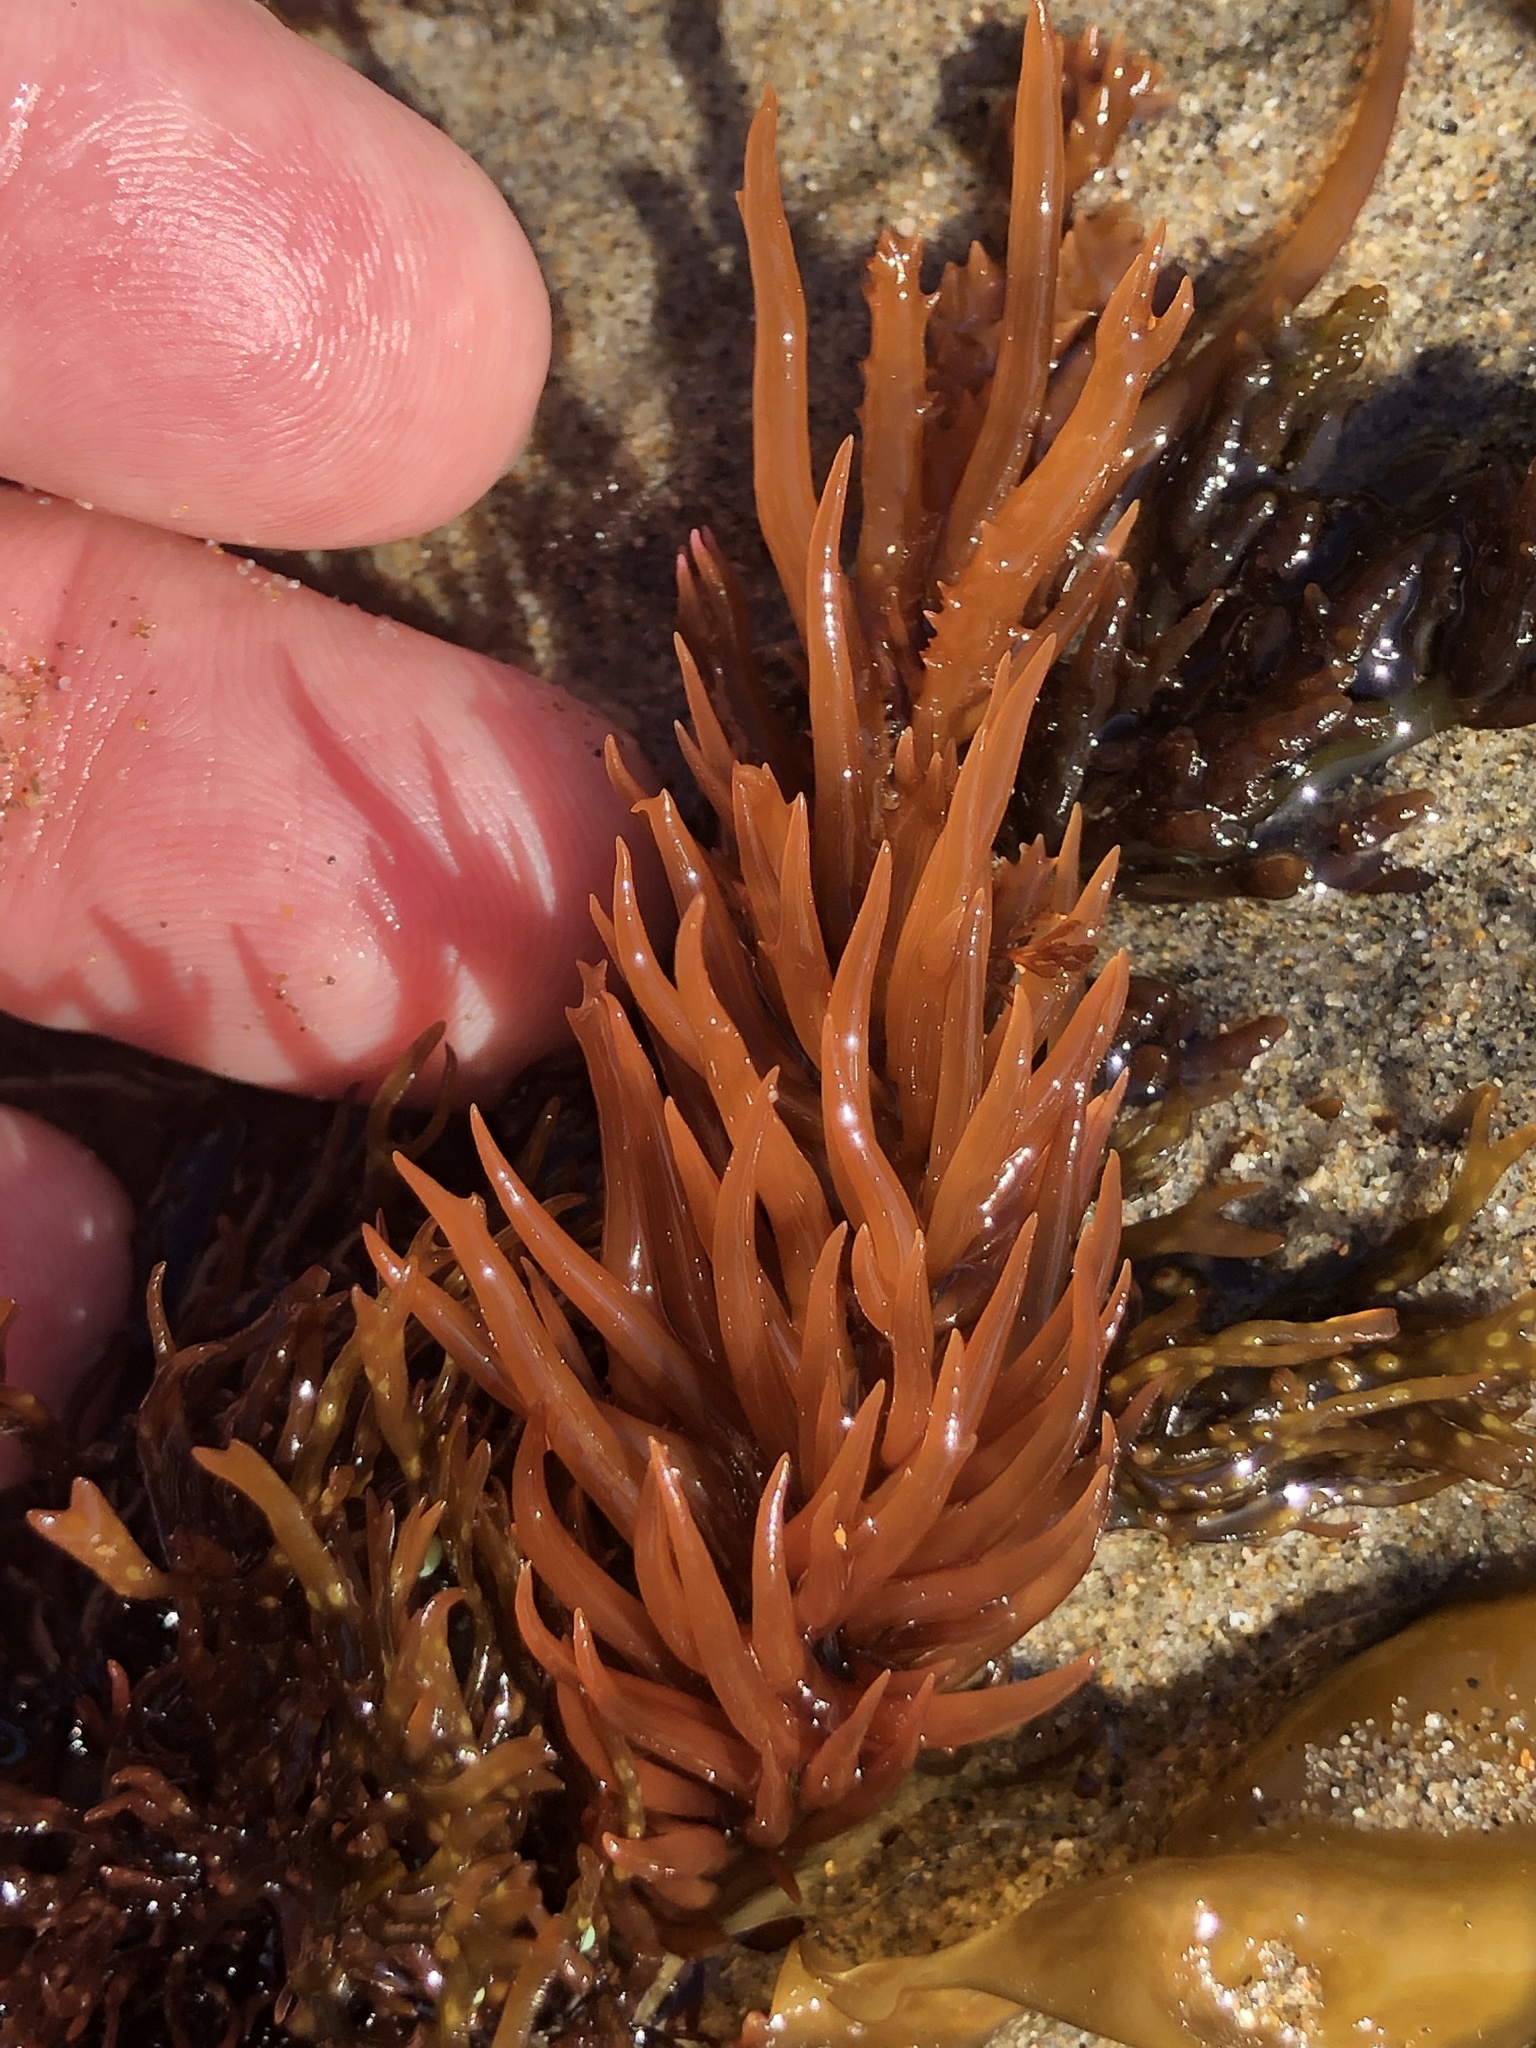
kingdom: Plantae
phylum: Rhodophyta
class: Florideophyceae
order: Gigartinales
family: Solieriaceae
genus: Sarcodiotheca
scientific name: Sarcodiotheca gaudichaudii
